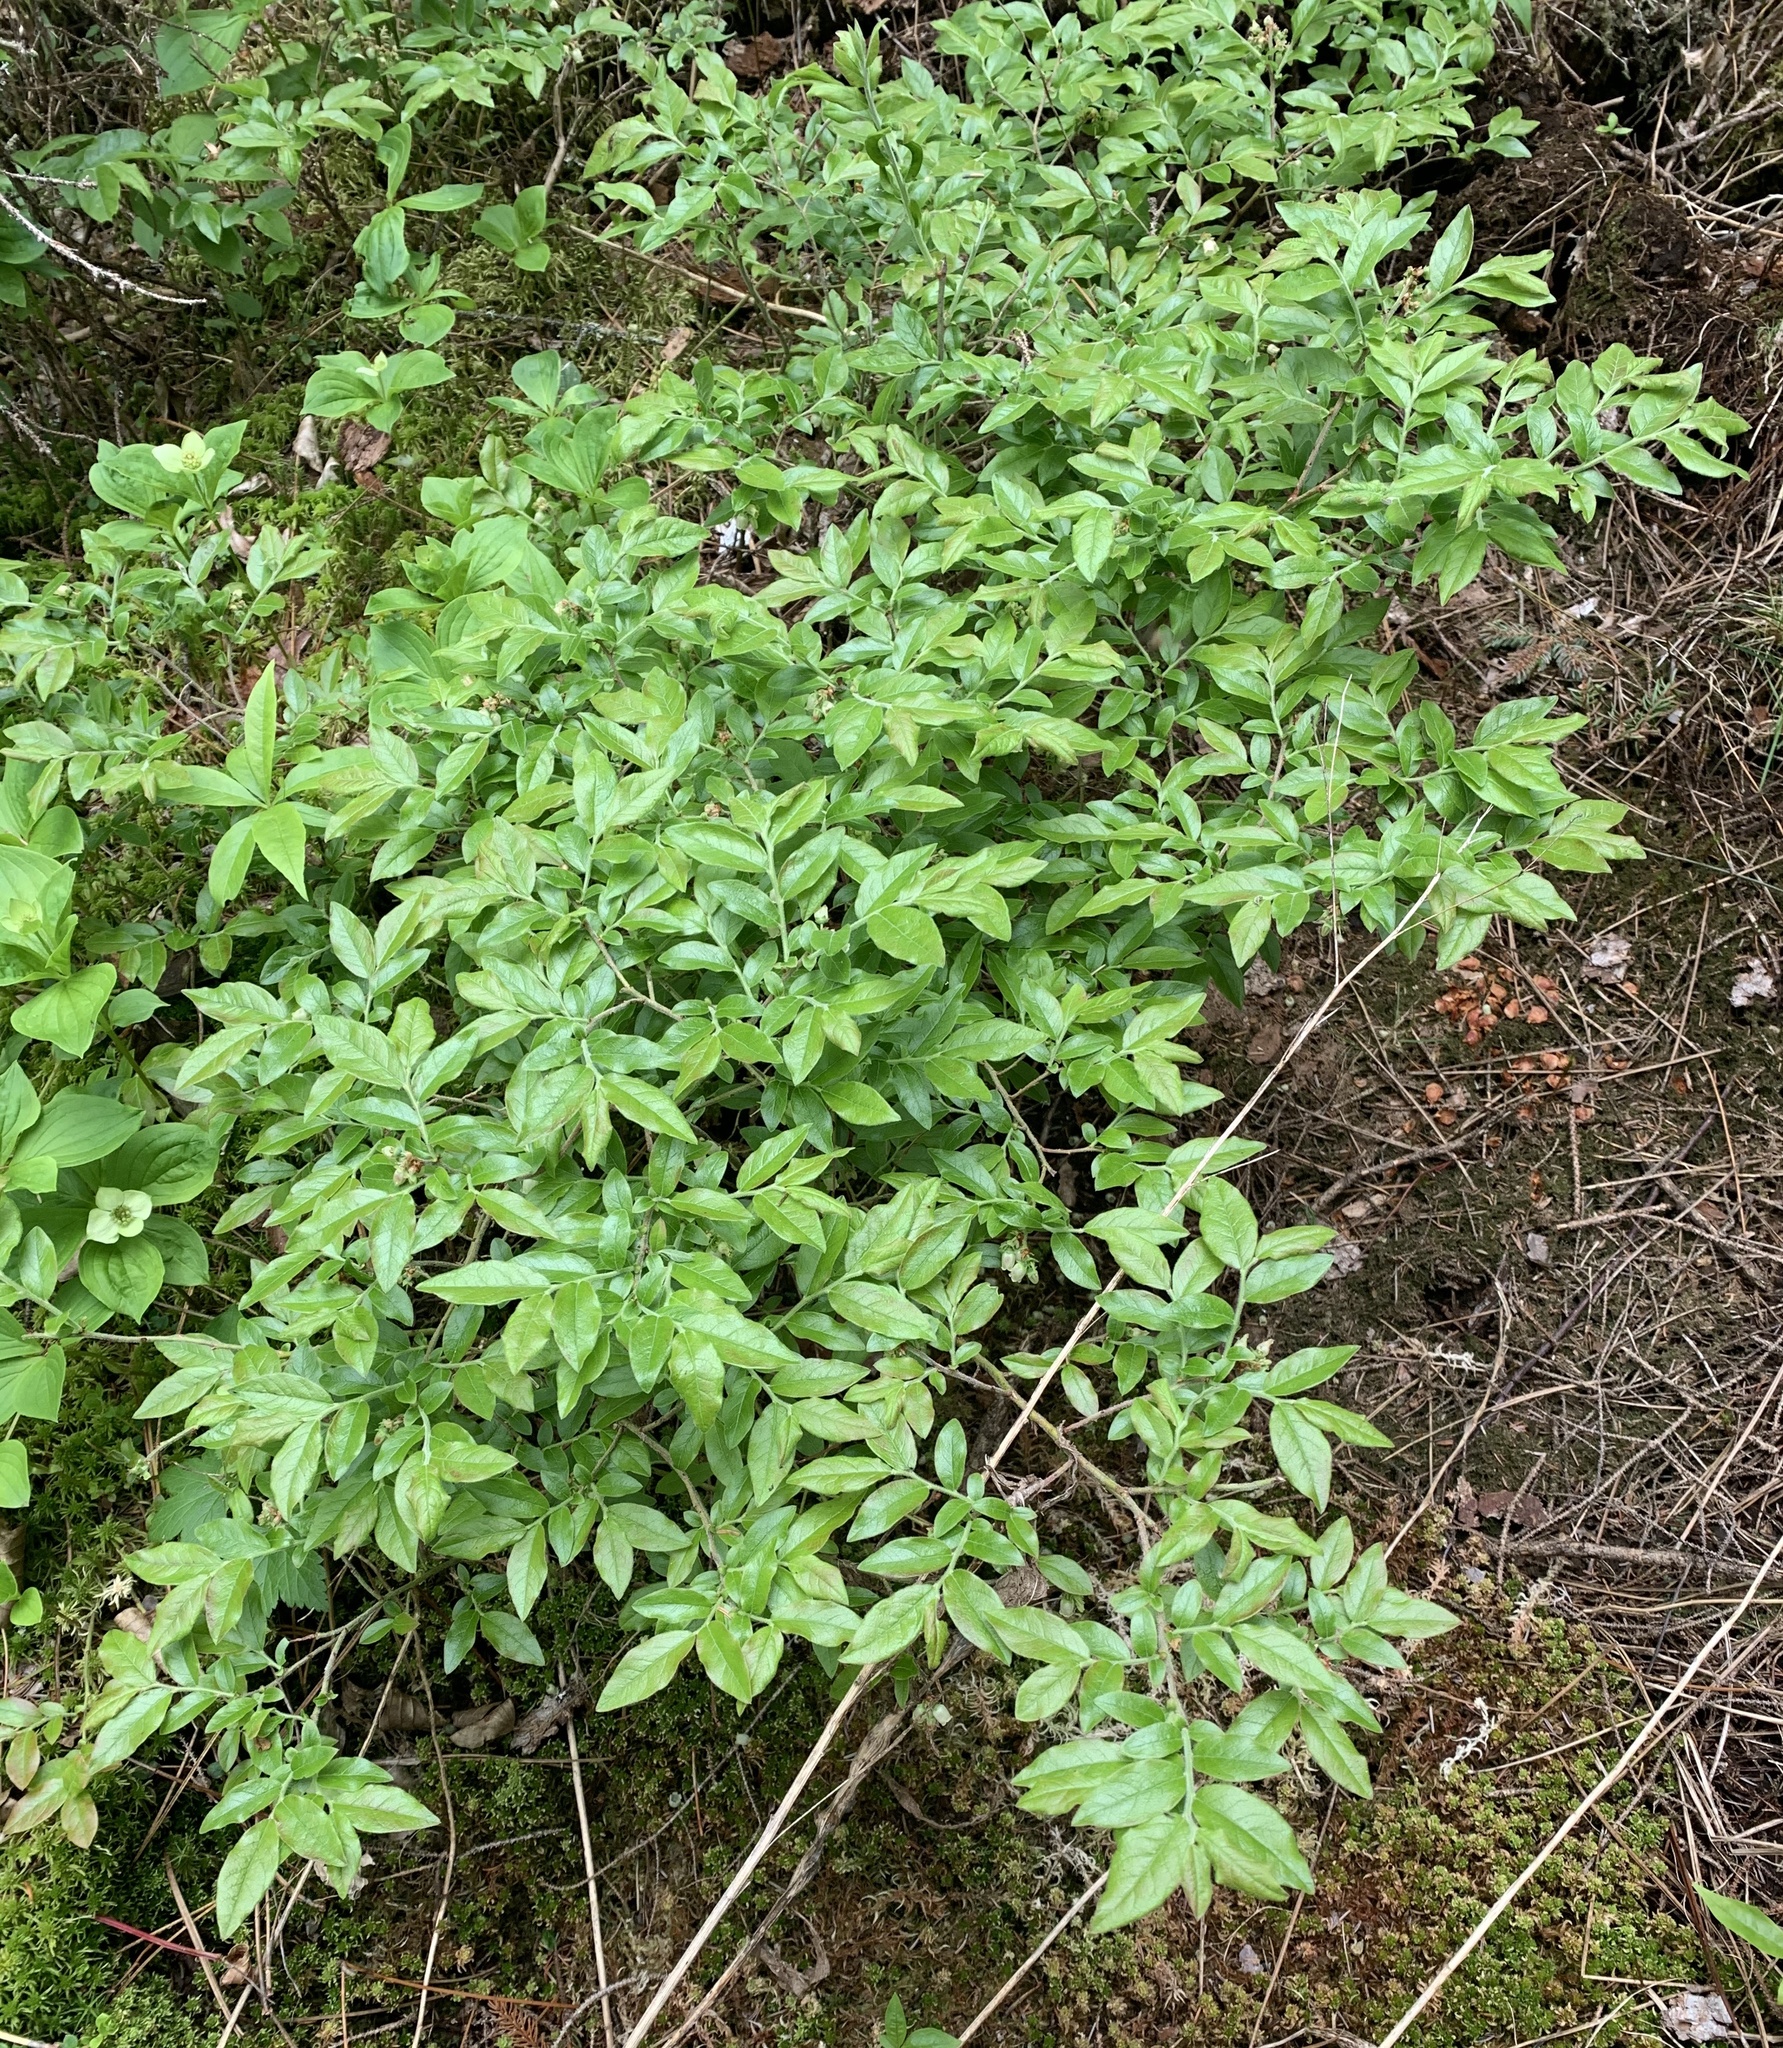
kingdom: Plantae
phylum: Tracheophyta
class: Magnoliopsida
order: Ericales
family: Ericaceae
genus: Vaccinium
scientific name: Vaccinium myrtilloides
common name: Canada blueberry
